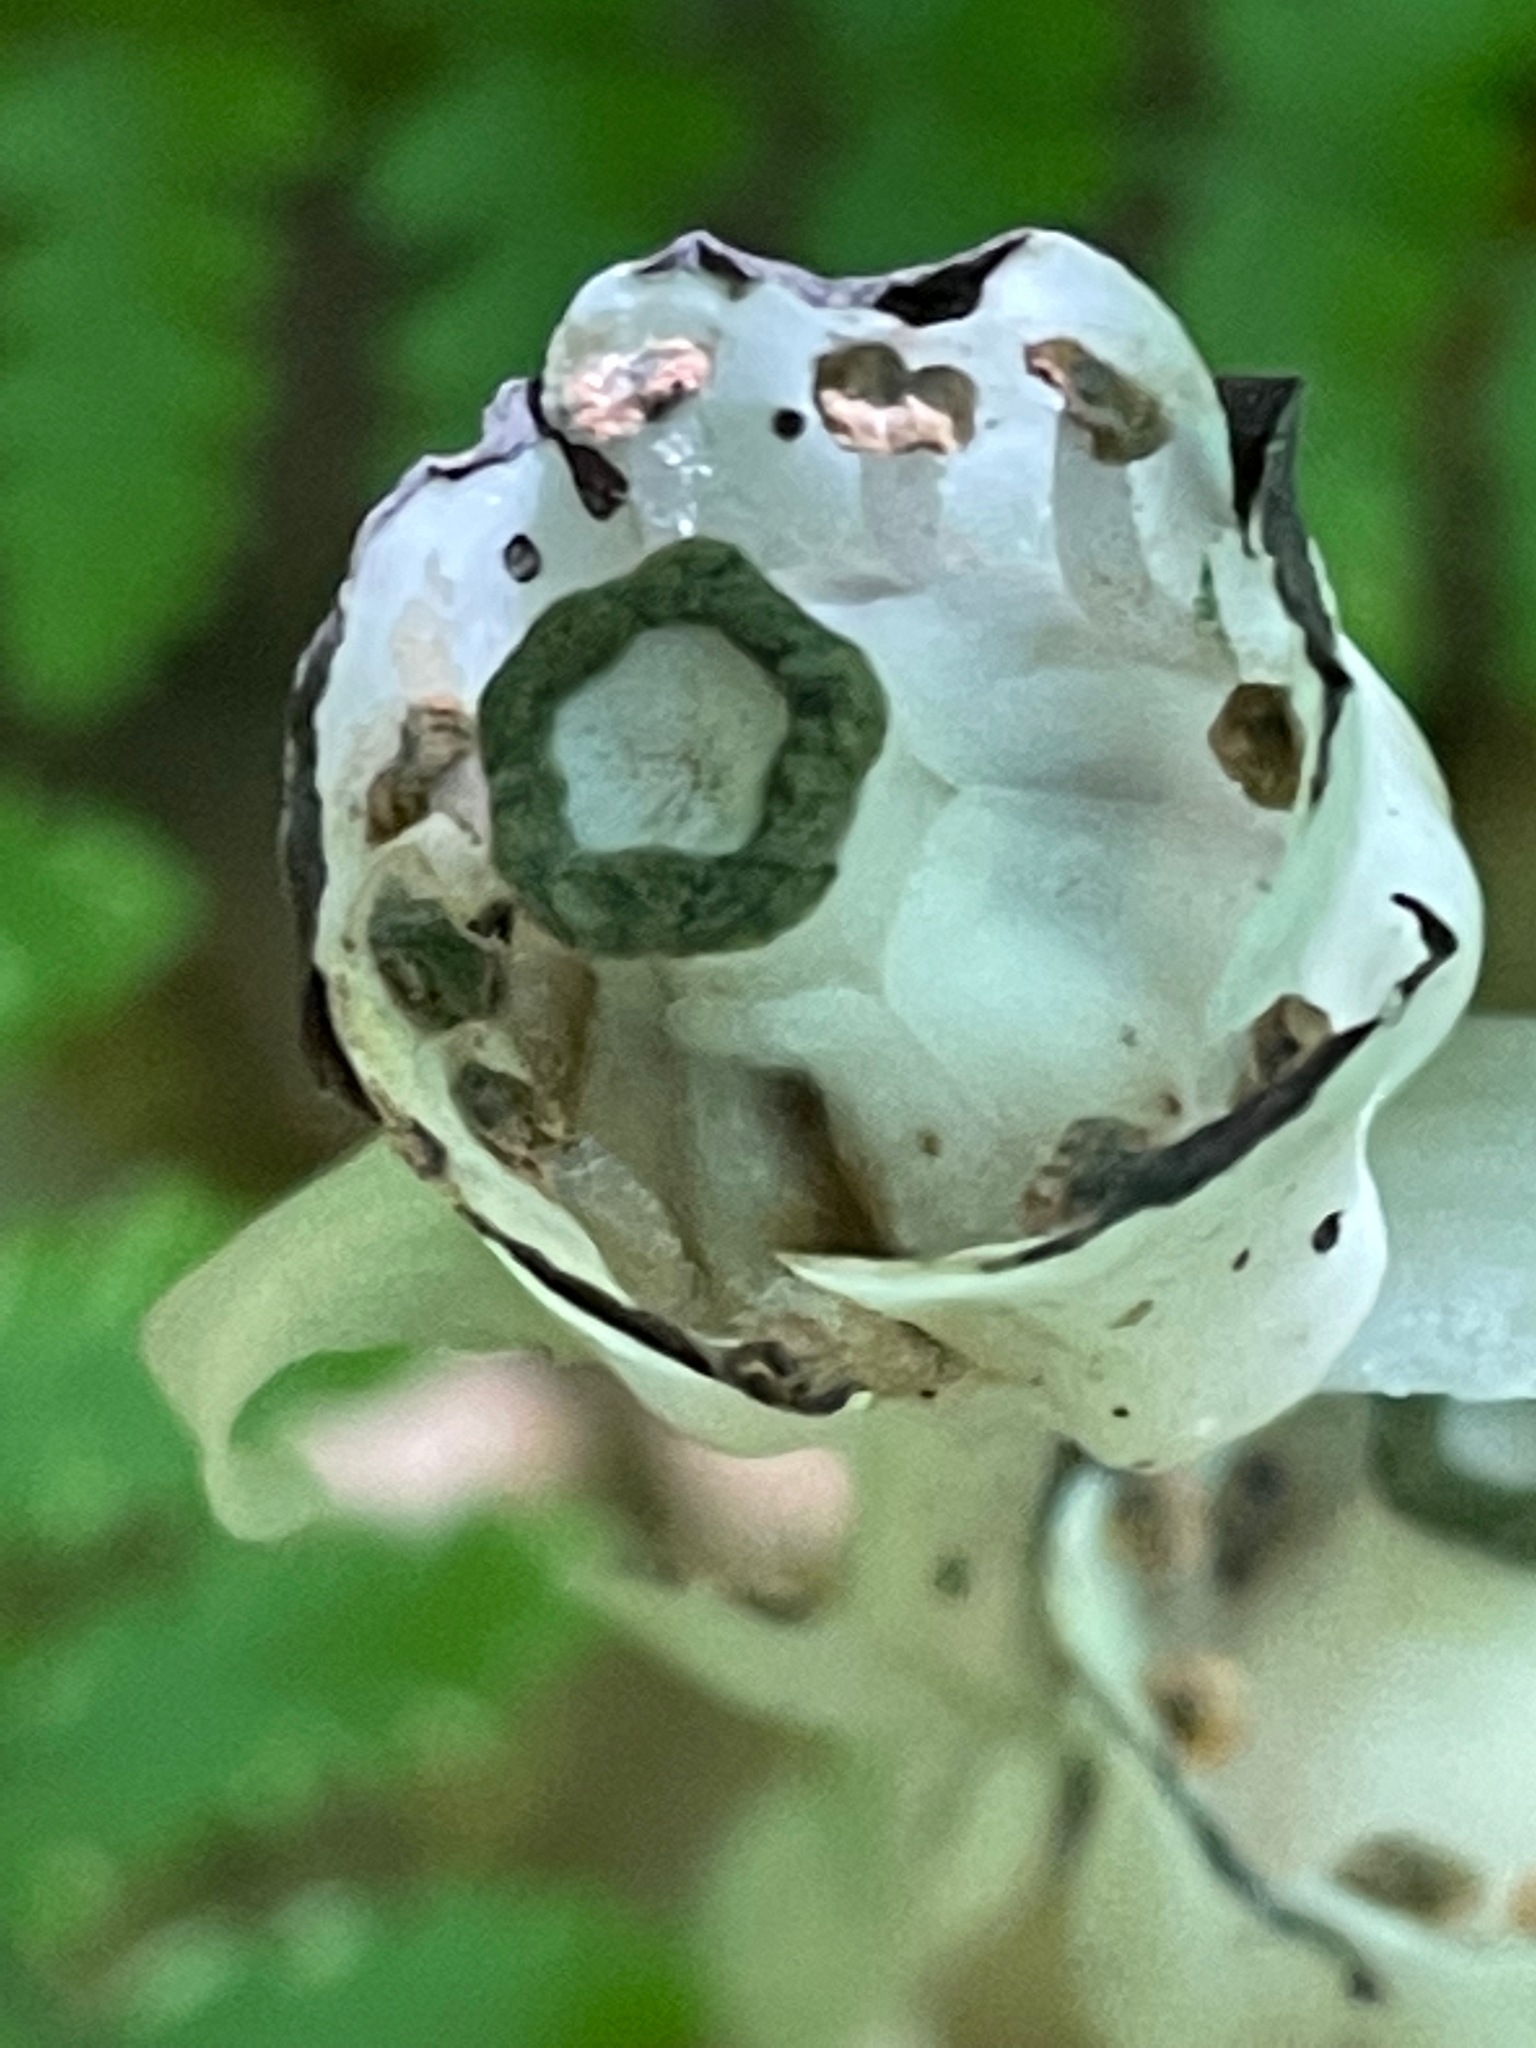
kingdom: Plantae
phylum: Tracheophyta
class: Magnoliopsida
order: Ericales
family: Ericaceae
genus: Monotropa
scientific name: Monotropa uniflora
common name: Convulsion root
